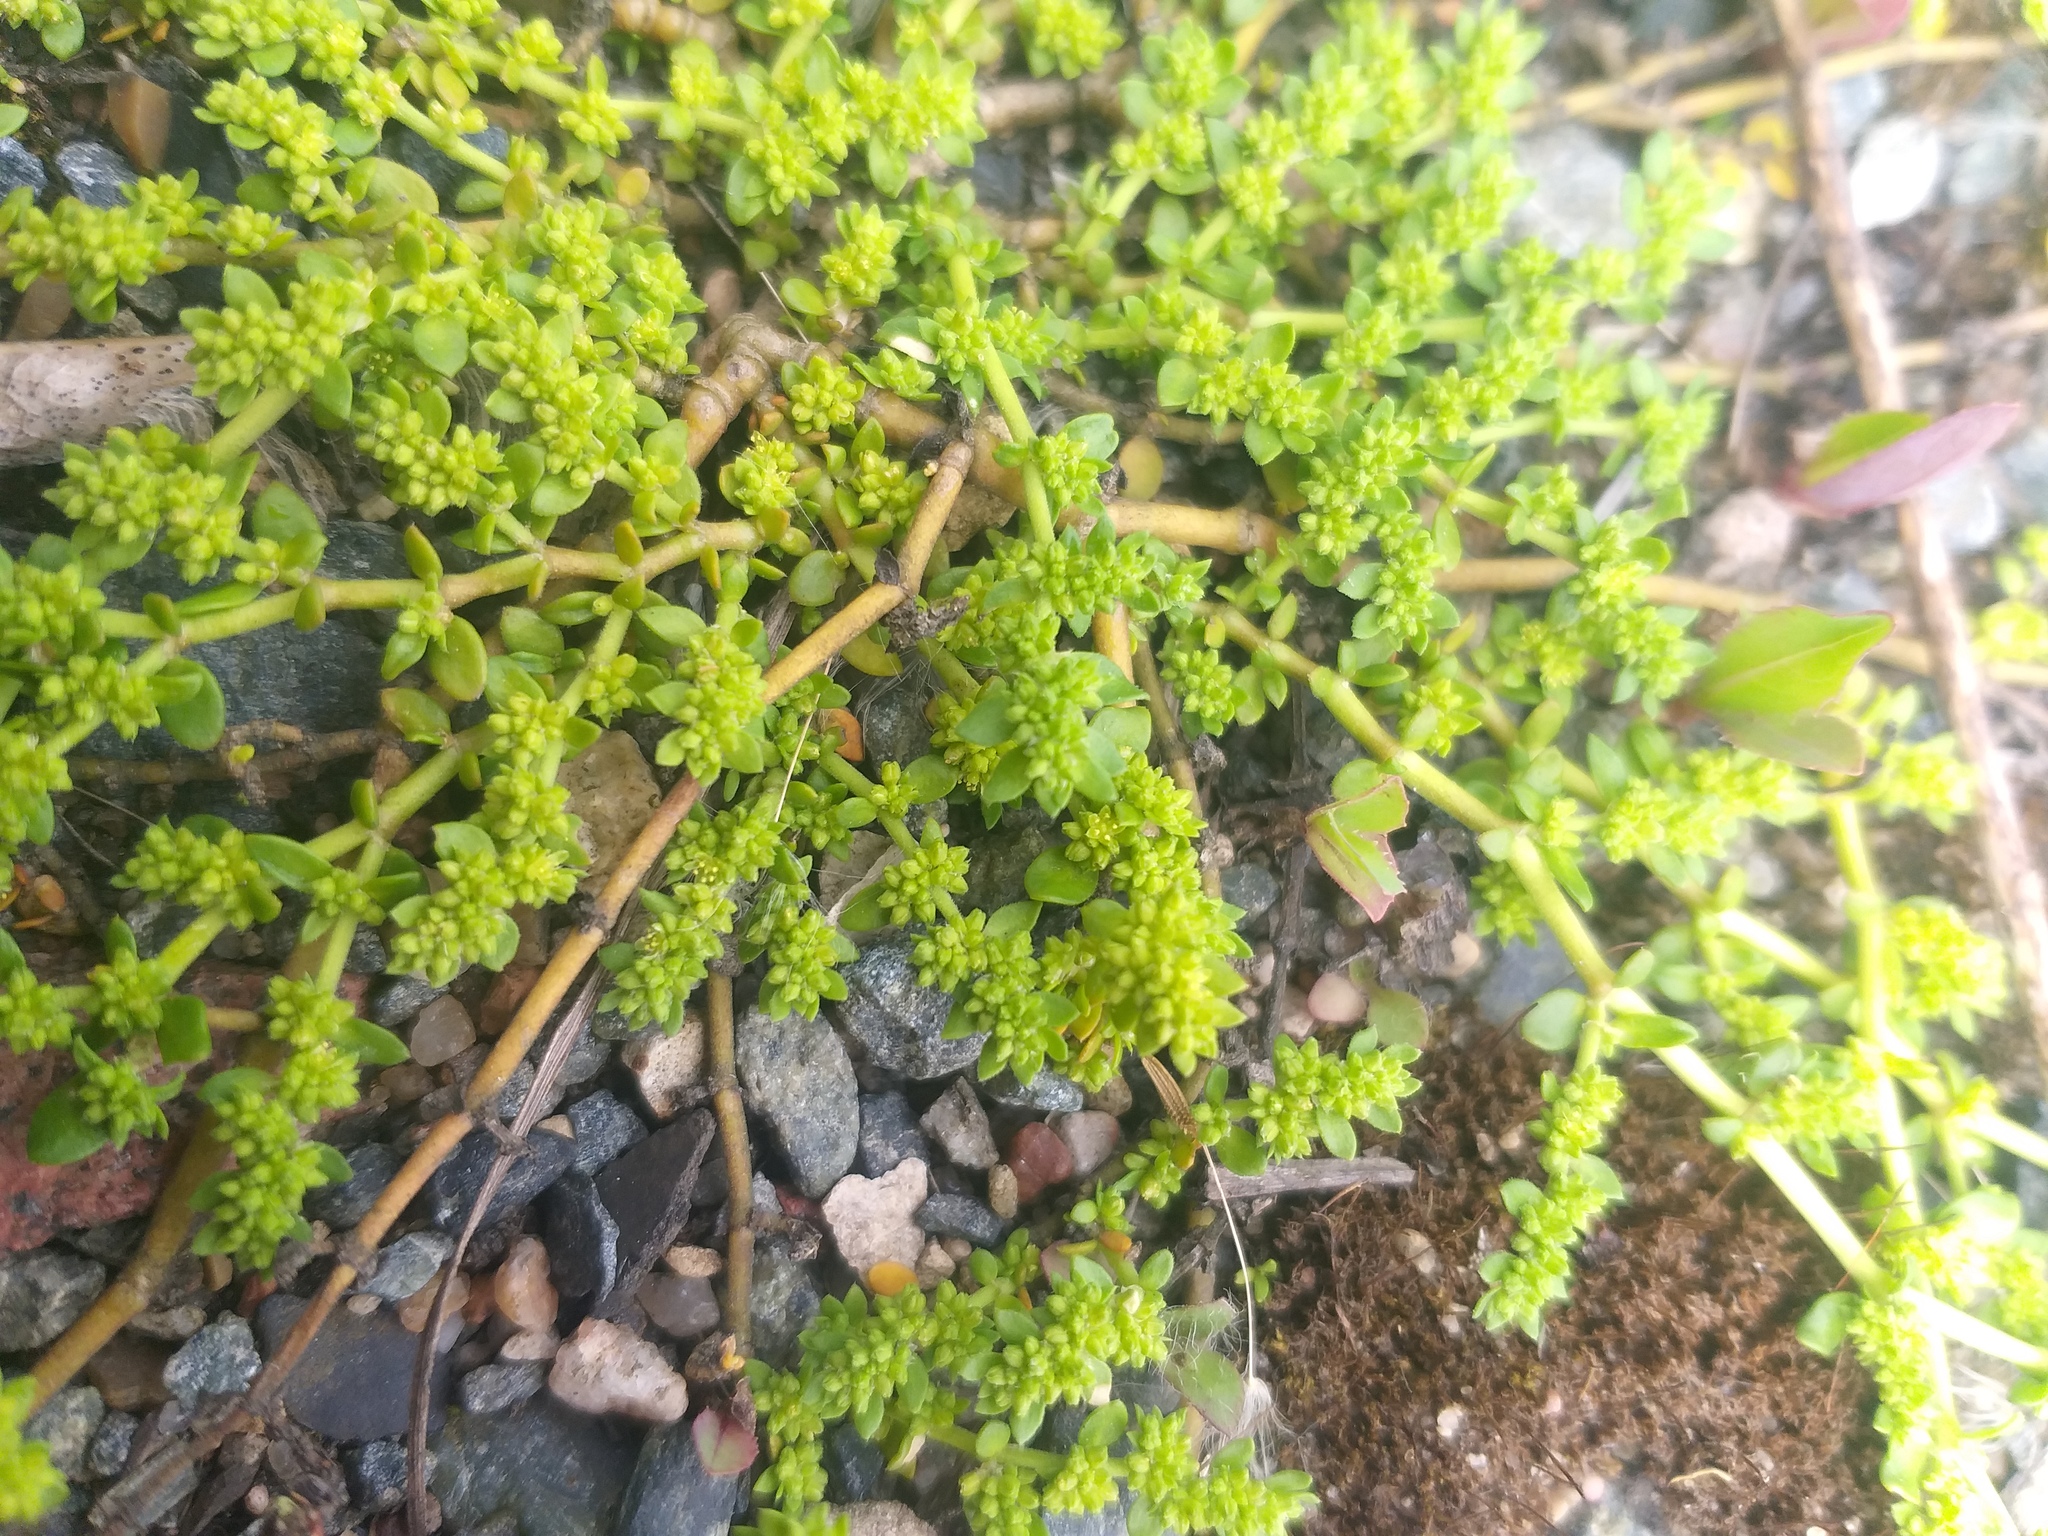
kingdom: Plantae
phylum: Tracheophyta
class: Magnoliopsida
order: Caryophyllales
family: Caryophyllaceae
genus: Herniaria
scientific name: Herniaria glabra
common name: Smooth rupturewort
